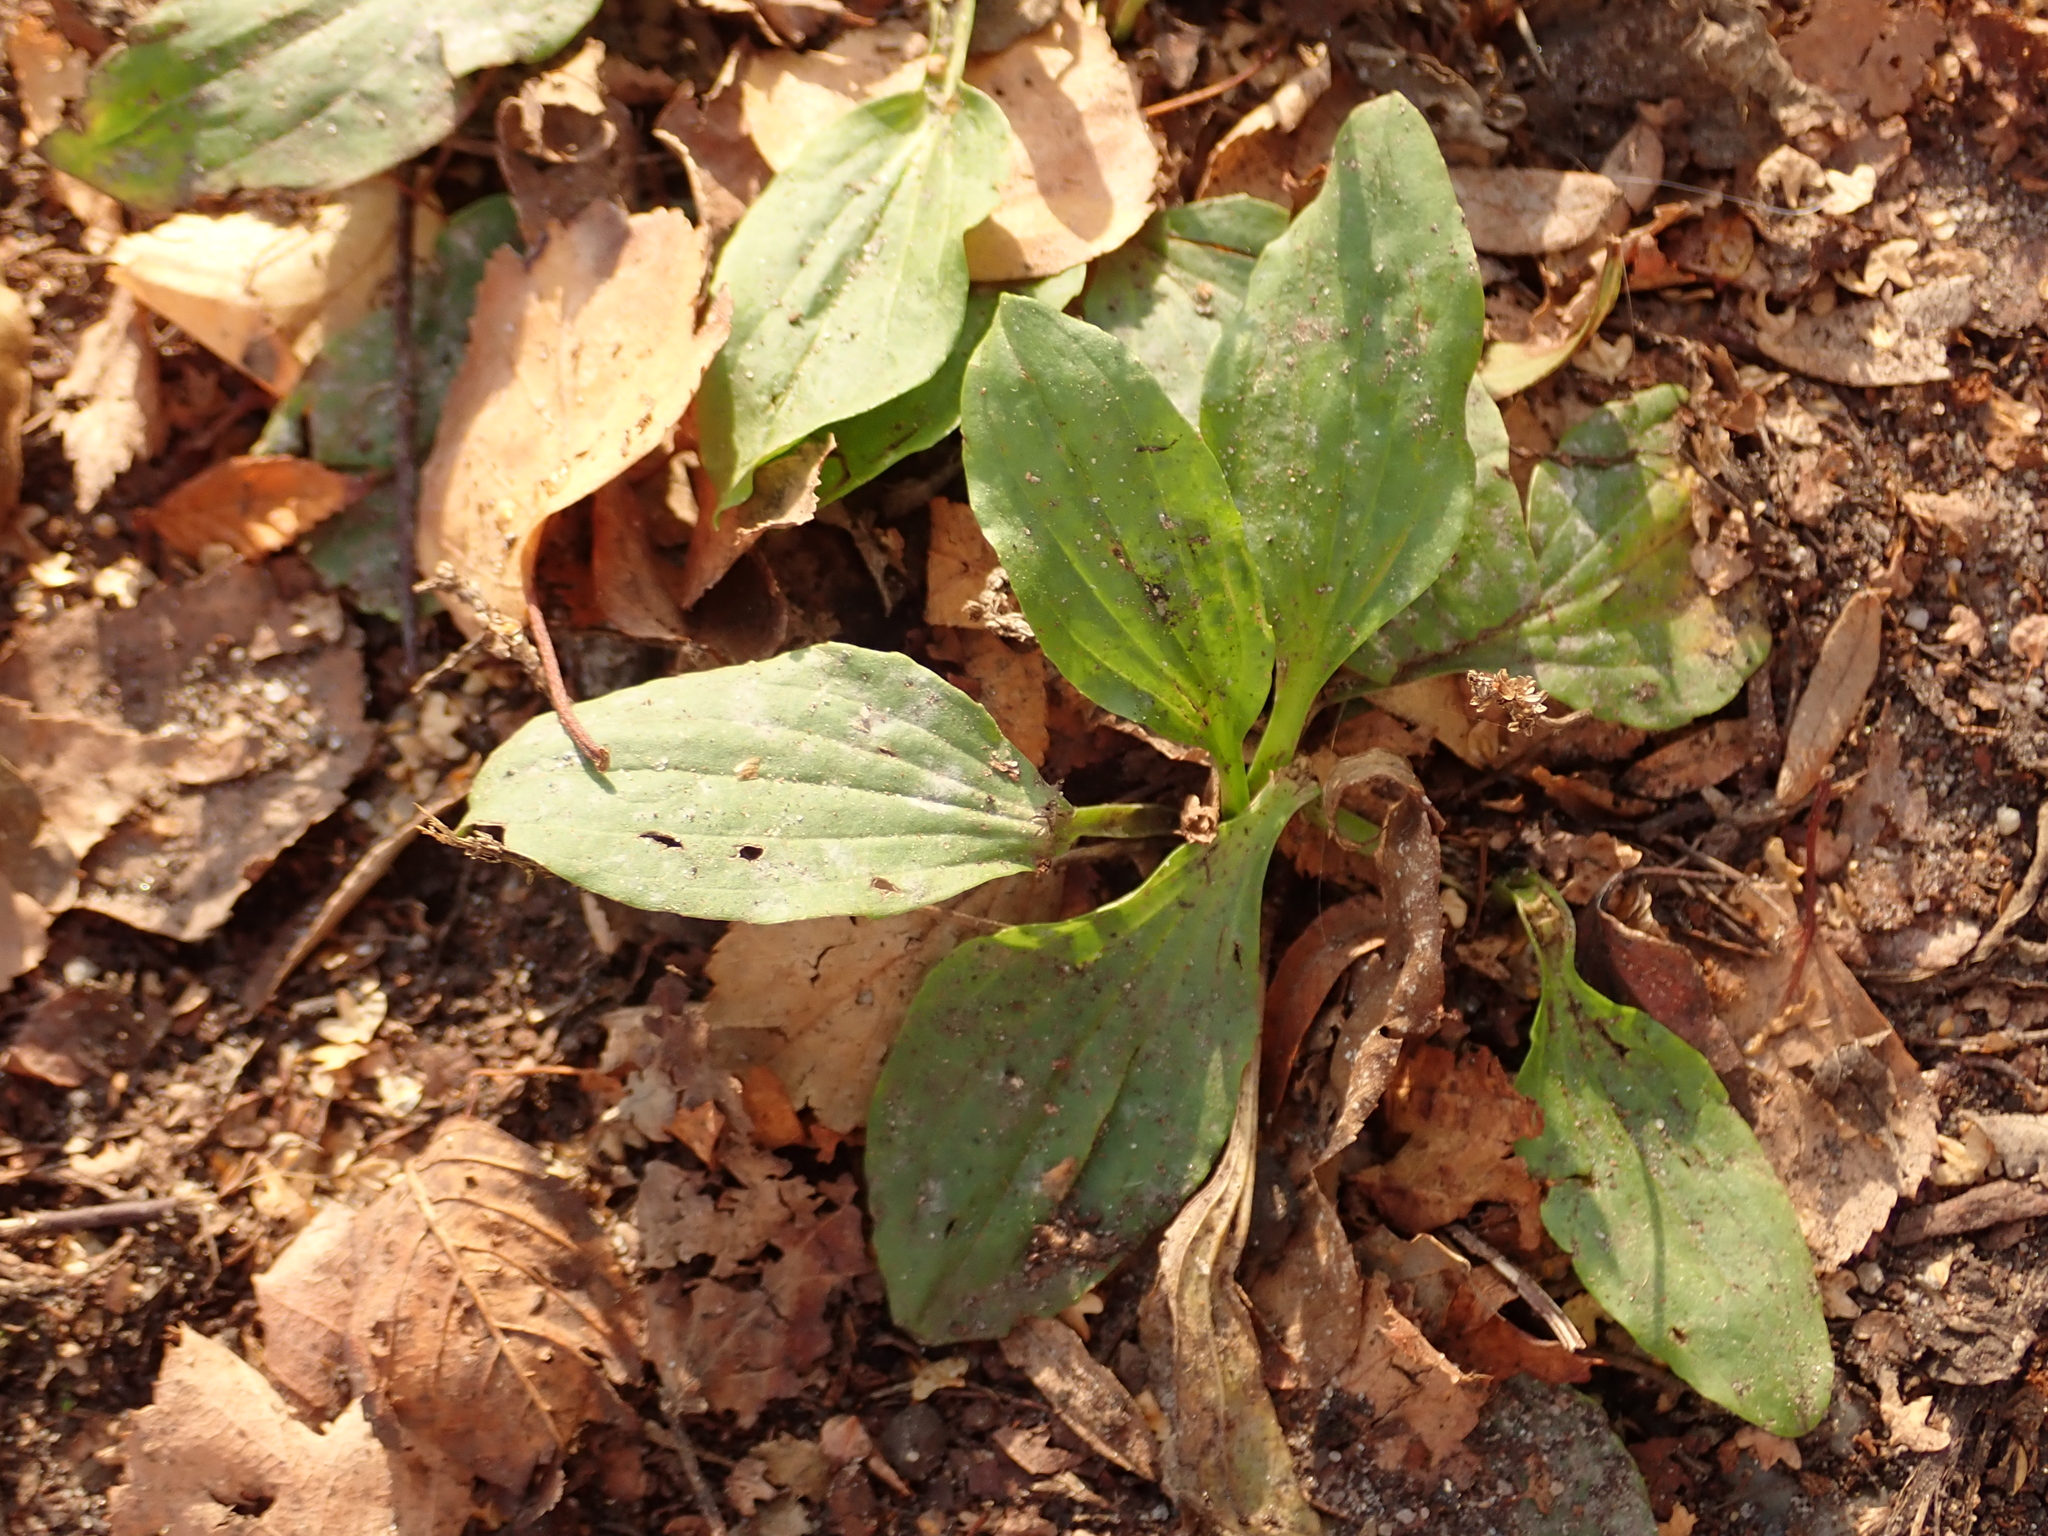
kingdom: Plantae
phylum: Tracheophyta
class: Magnoliopsida
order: Lamiales
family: Plantaginaceae
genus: Plantago
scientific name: Plantago major
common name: Common plantain
